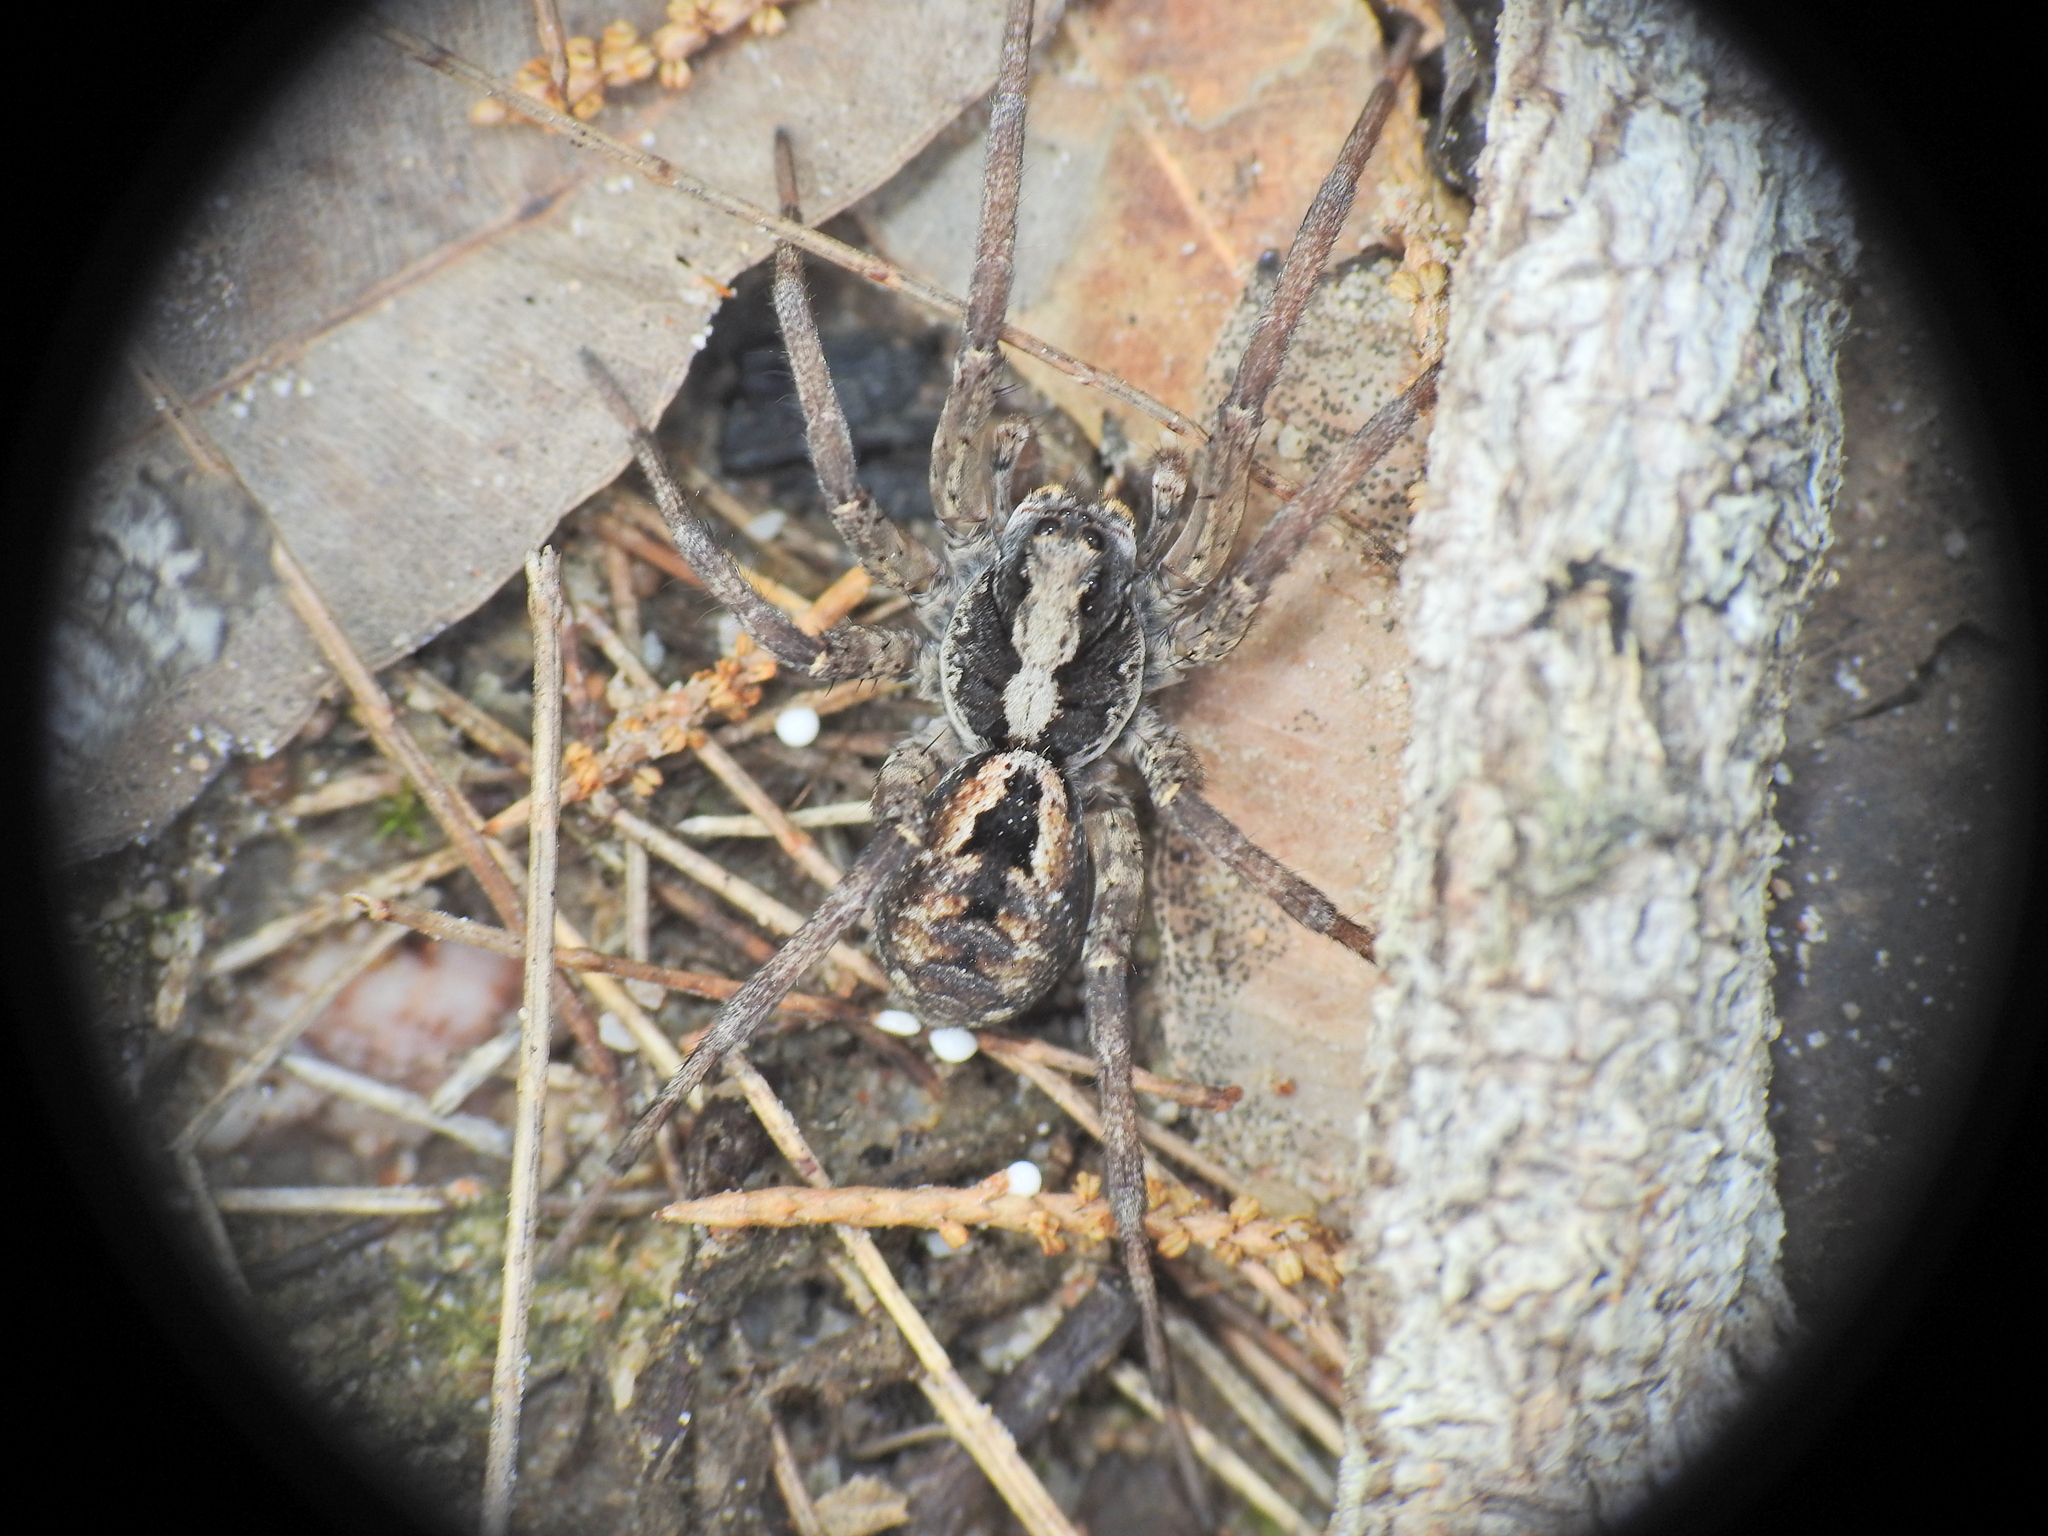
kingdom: Animalia
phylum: Arthropoda
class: Arachnida
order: Araneae
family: Lycosidae
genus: Venator
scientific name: Venator spenceri
